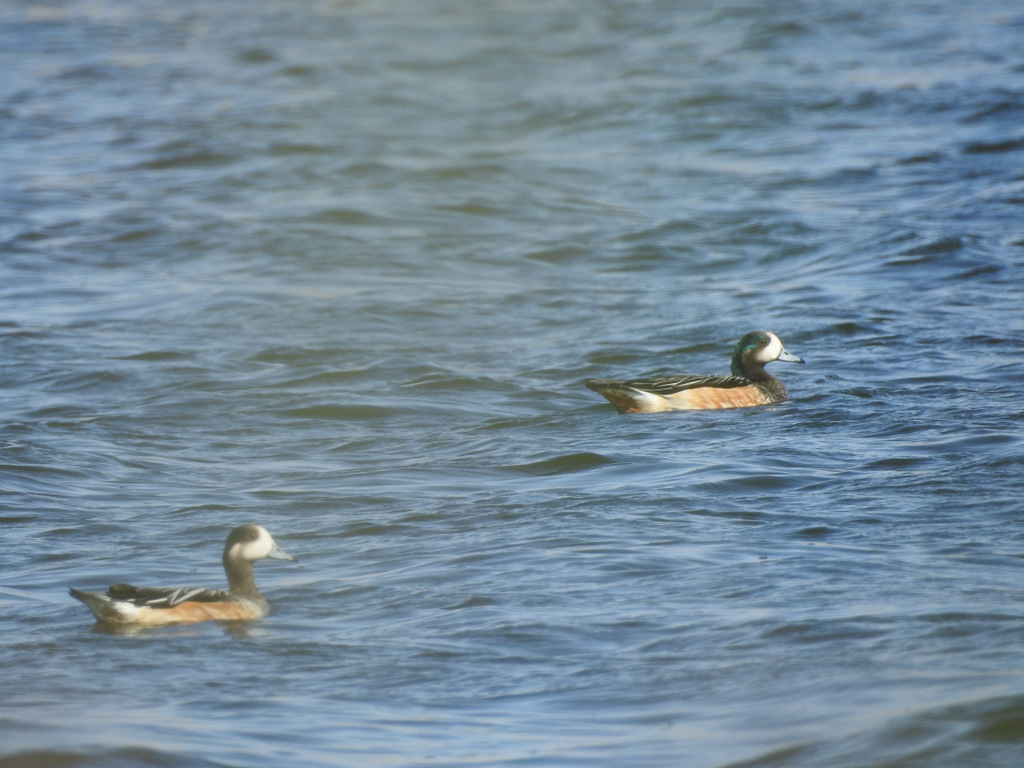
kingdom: Animalia
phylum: Chordata
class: Aves
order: Anseriformes
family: Anatidae
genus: Mareca
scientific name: Mareca sibilatrix
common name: Chiloe wigeon
